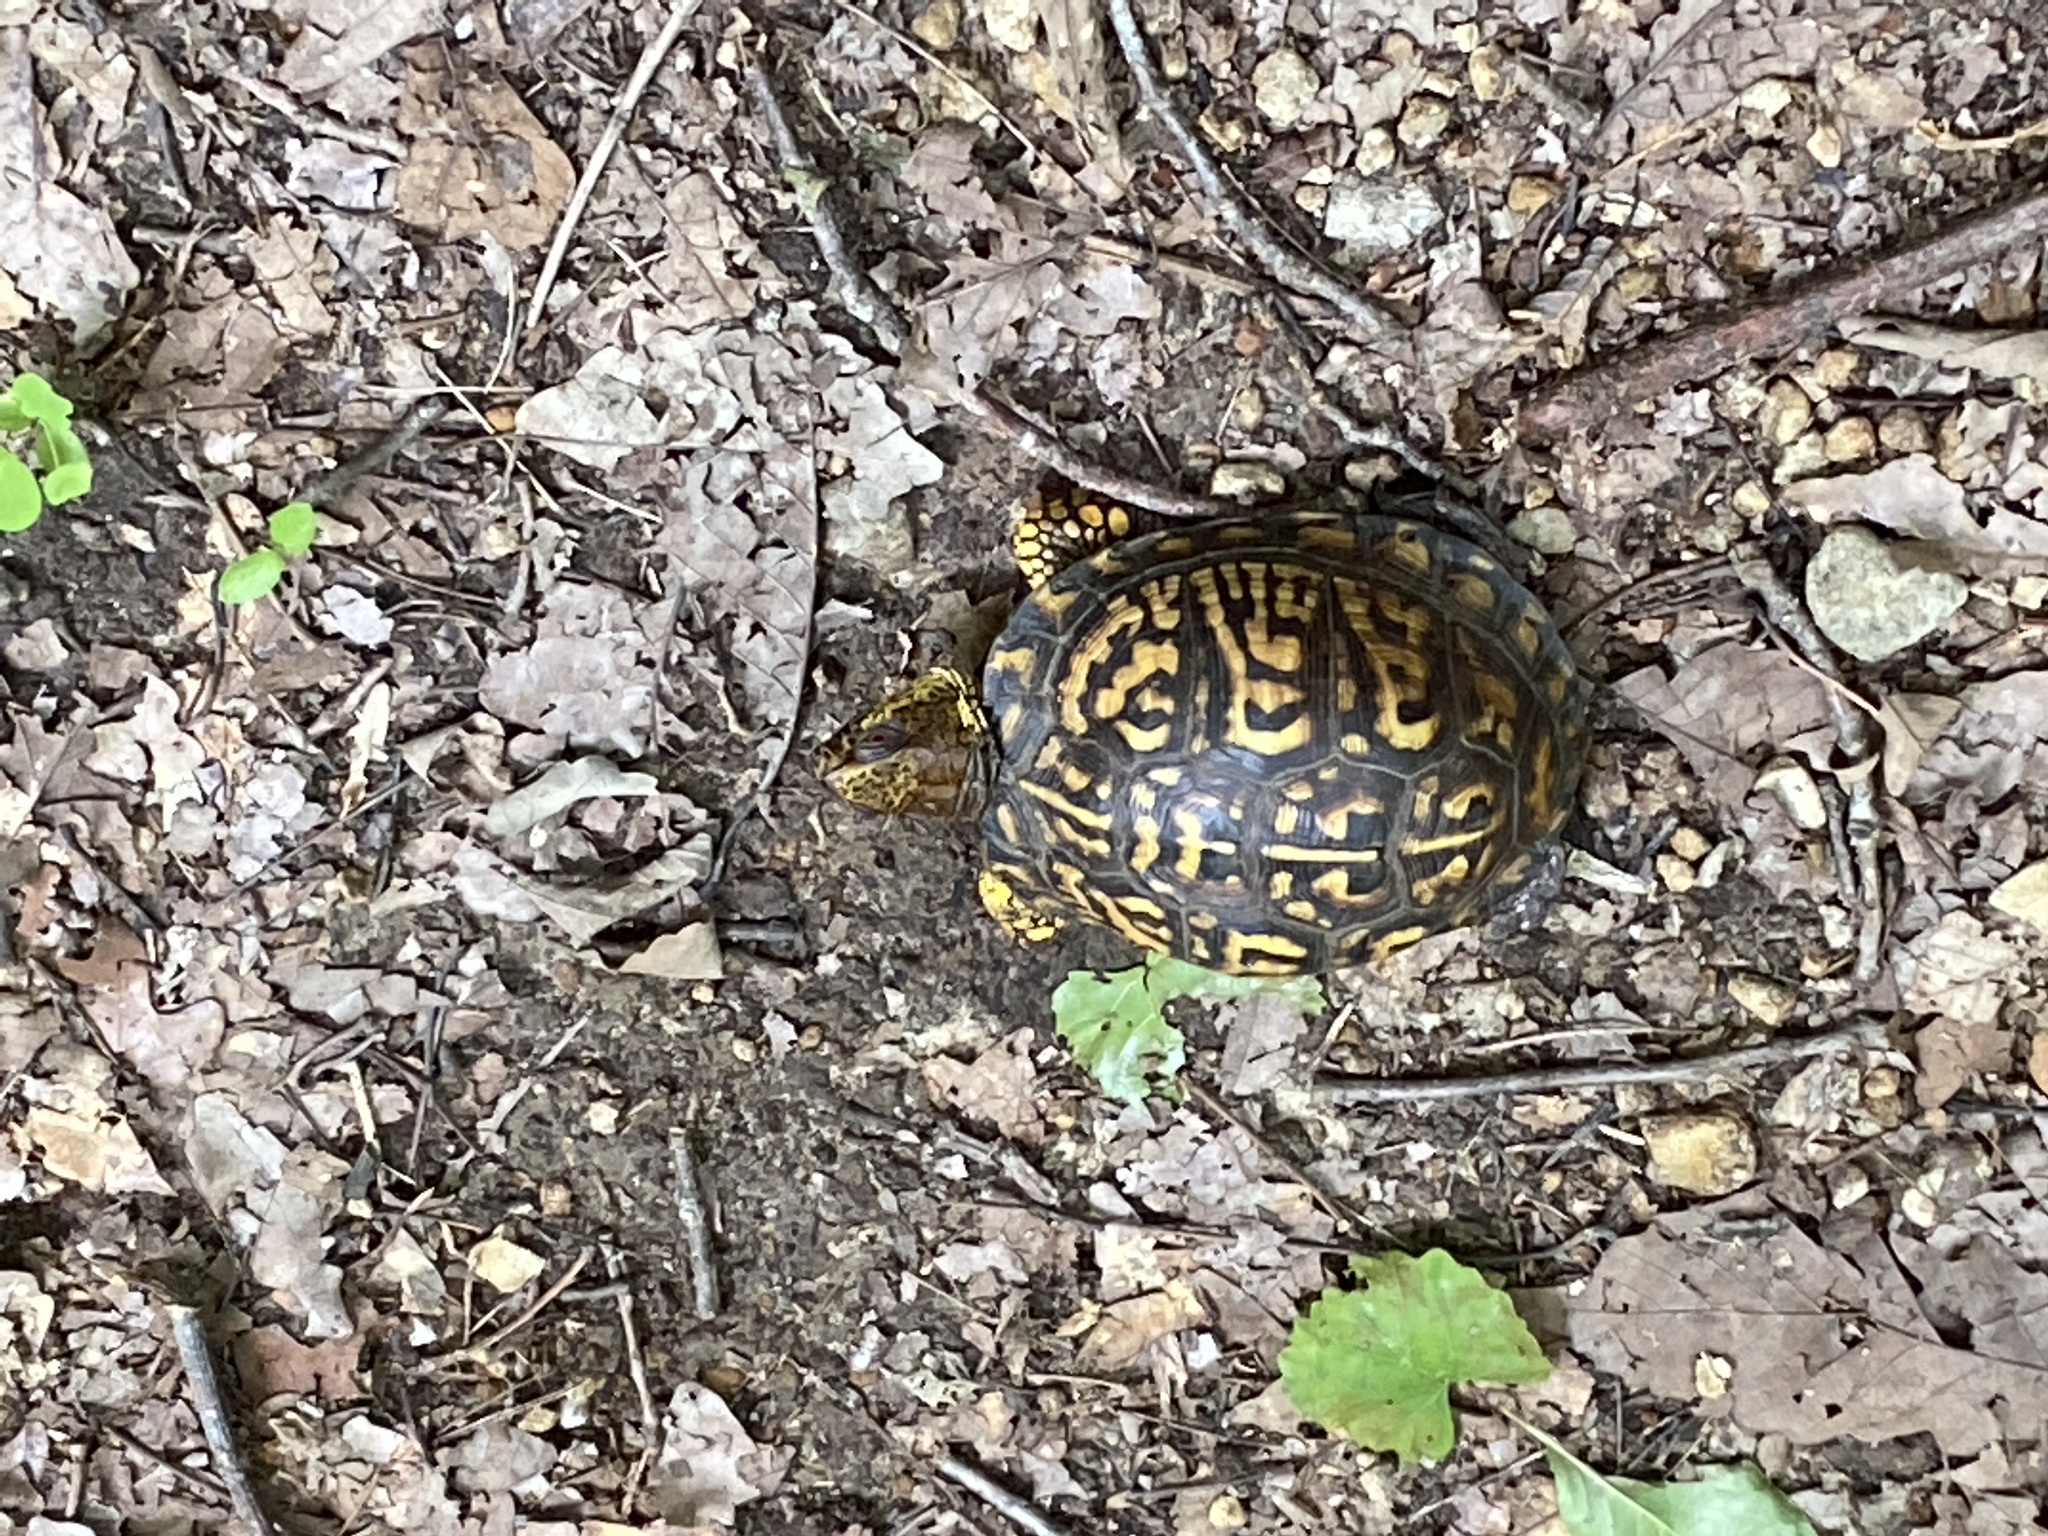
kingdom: Animalia
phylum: Chordata
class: Testudines
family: Emydidae
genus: Terrapene
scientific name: Terrapene carolina
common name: Common box turtle
